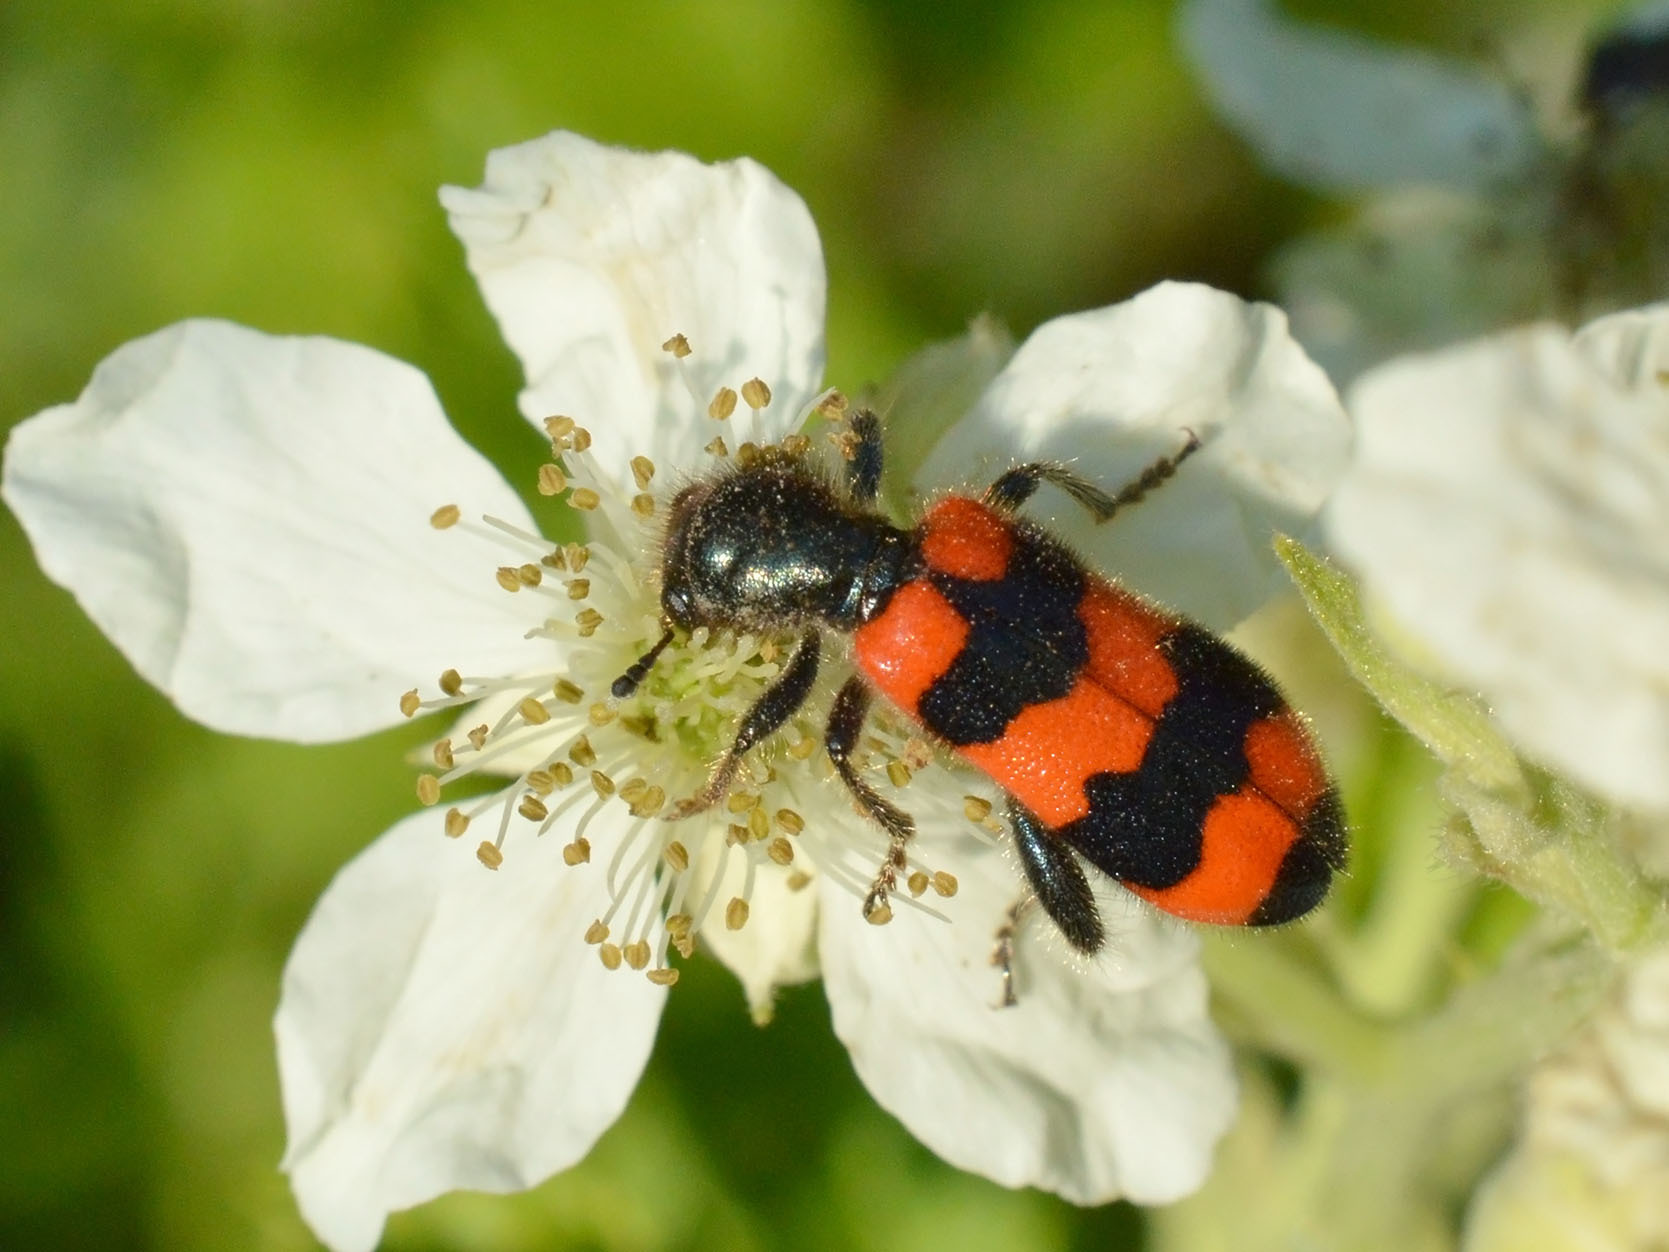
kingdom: Animalia
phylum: Arthropoda
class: Insecta
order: Coleoptera
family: Cleridae
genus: Trichodes
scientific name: Trichodes apiarius
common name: Bee-eating beetle
